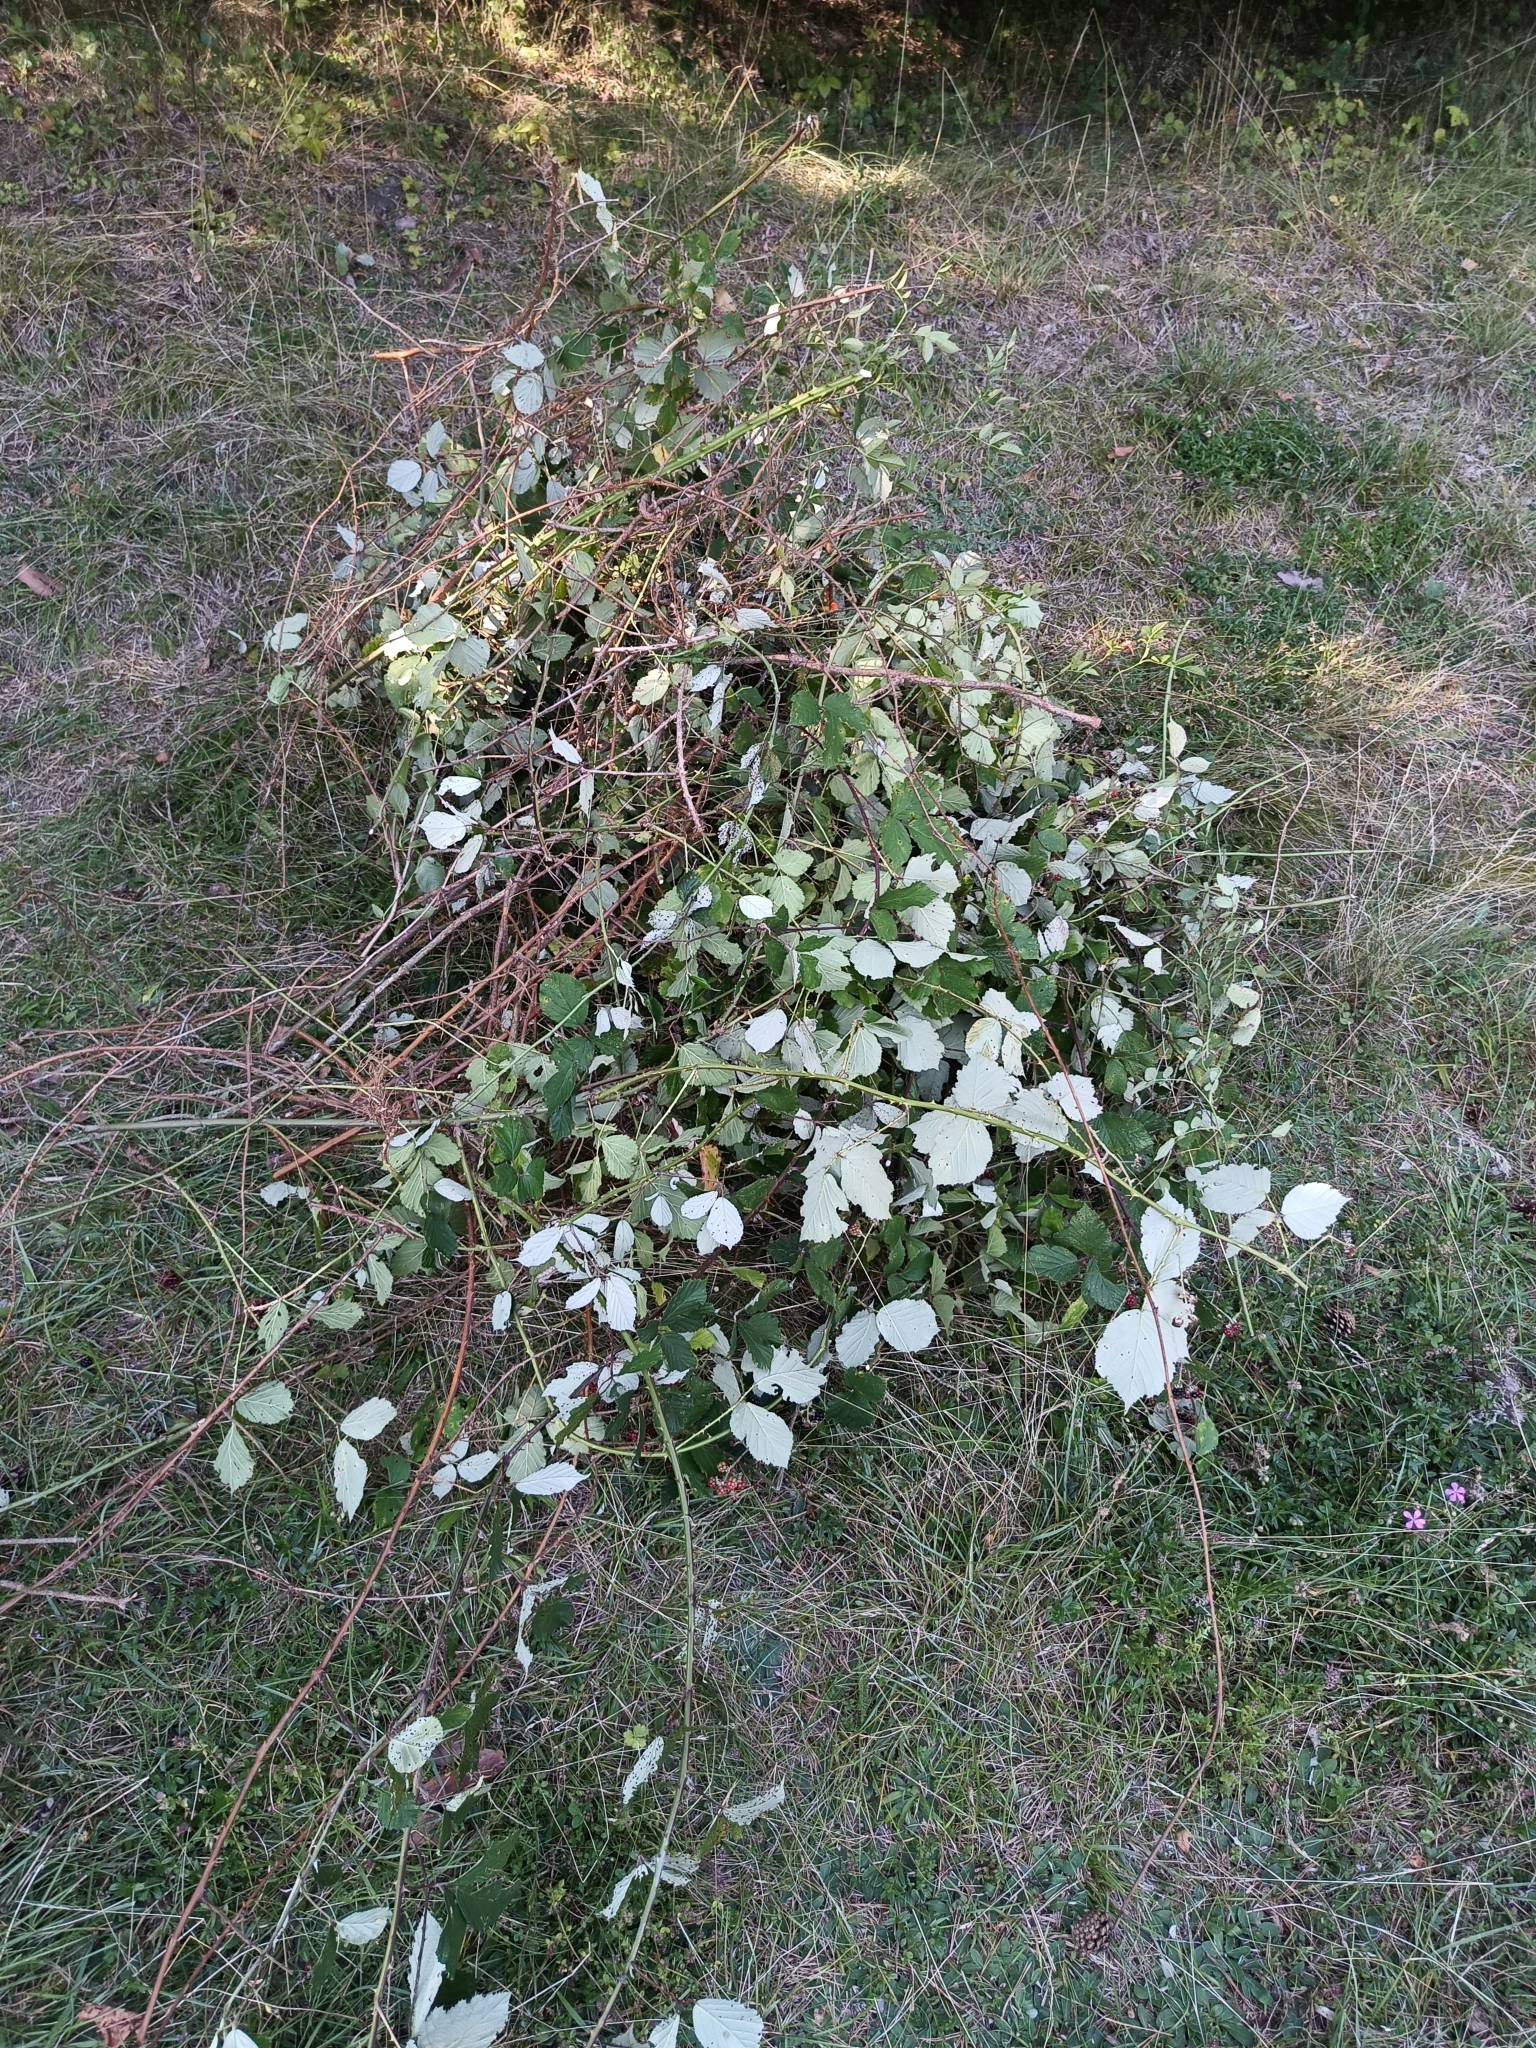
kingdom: Plantae
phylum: Tracheophyta
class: Magnoliopsida
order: Rosales
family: Rosaceae
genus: Rubus
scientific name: Rubus bifrons
